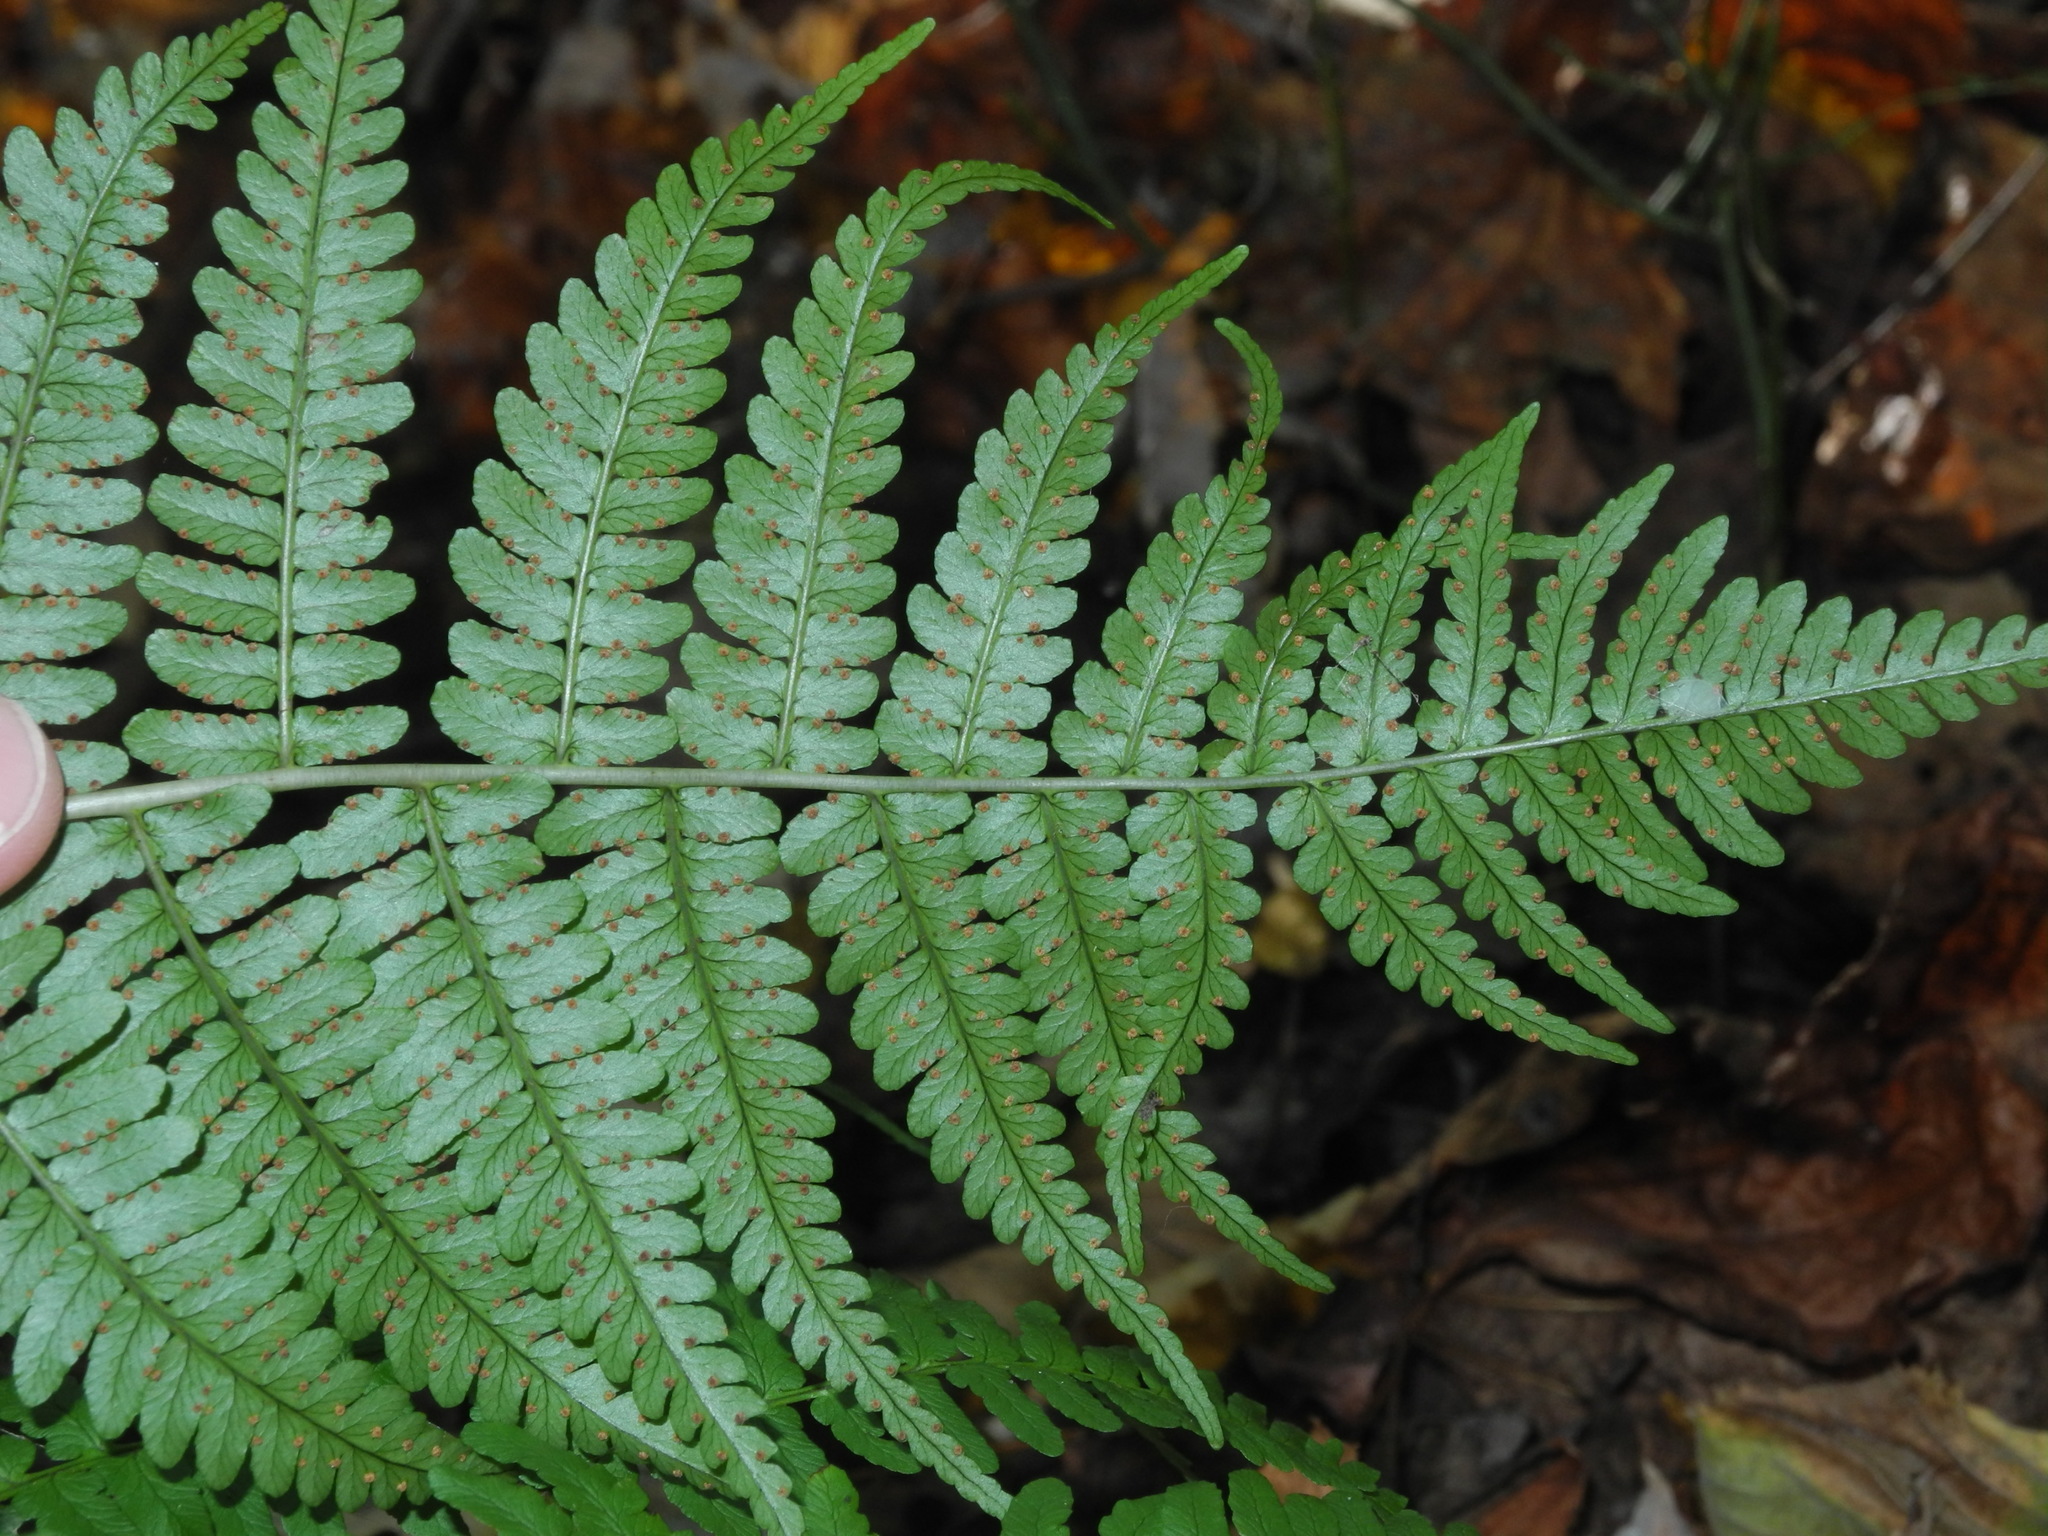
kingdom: Plantae
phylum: Tracheophyta
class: Polypodiopsida
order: Polypodiales
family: Dryopteridaceae
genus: Dryopteris
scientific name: Dryopteris marginalis
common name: Marginal wood fern
